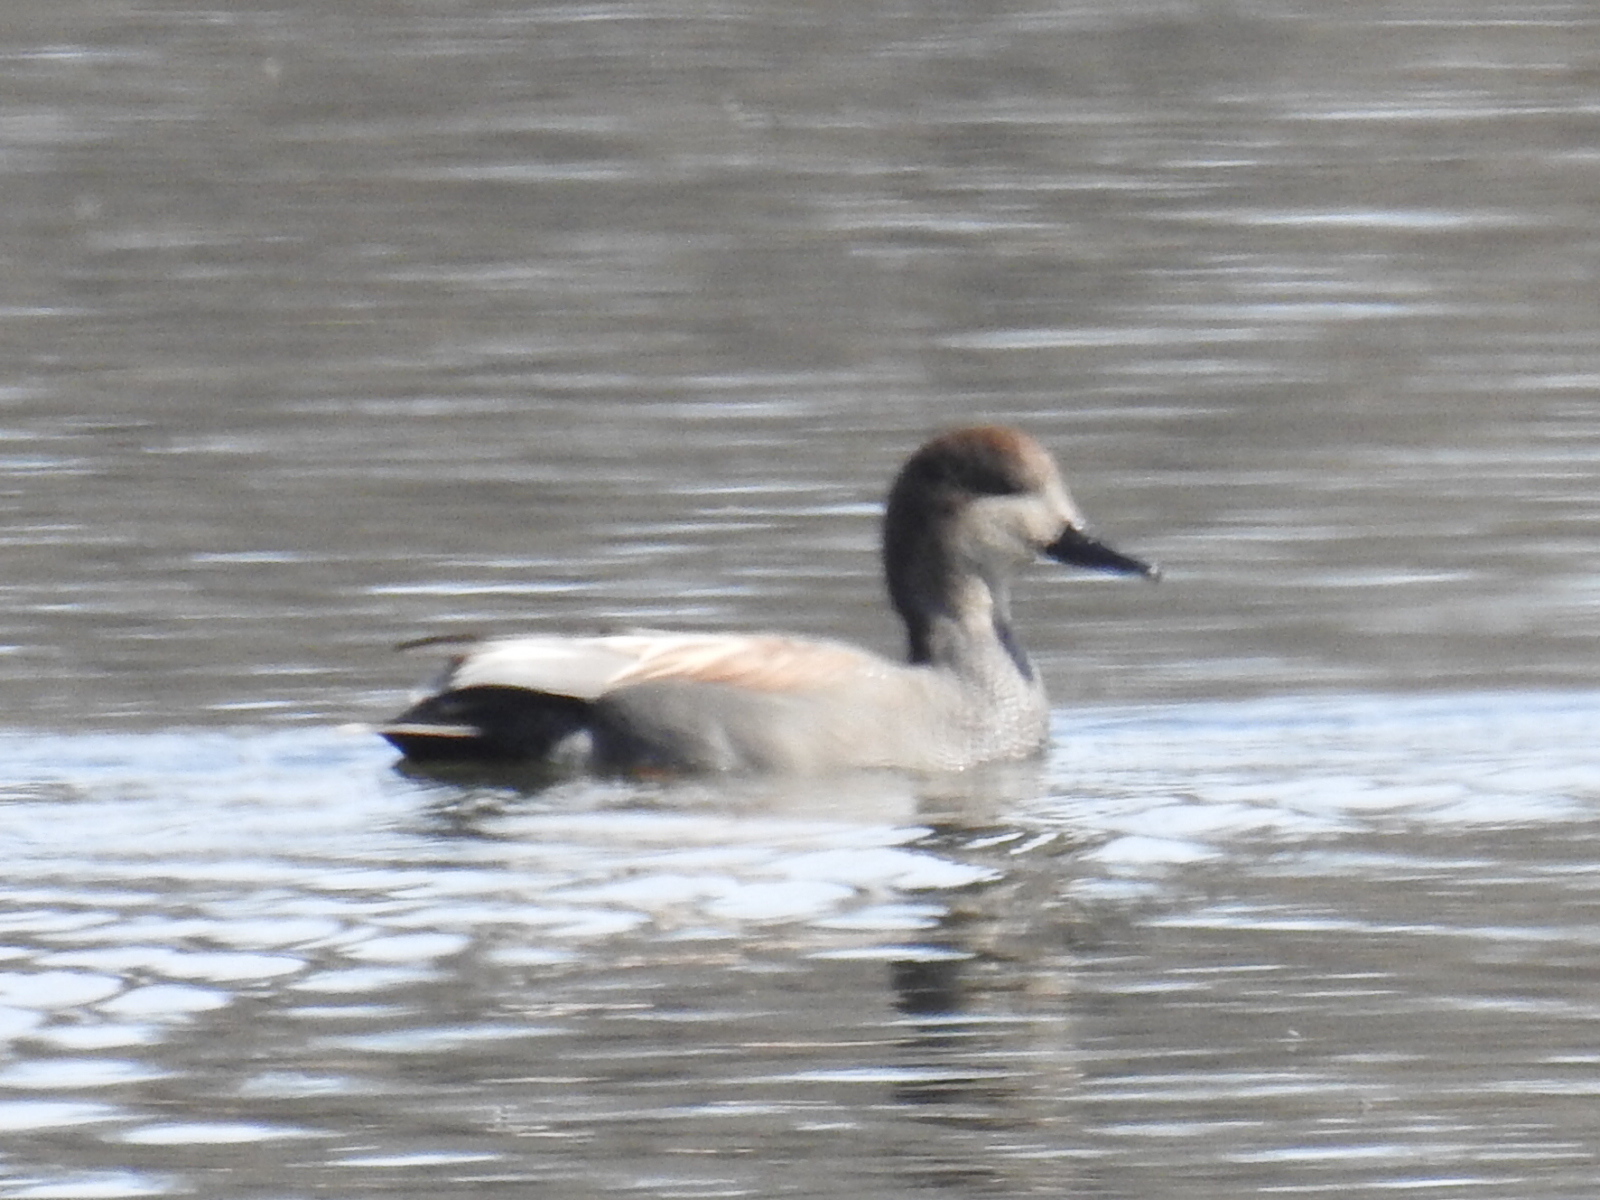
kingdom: Animalia
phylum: Chordata
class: Aves
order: Anseriformes
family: Anatidae
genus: Mareca
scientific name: Mareca strepera
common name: Gadwall
